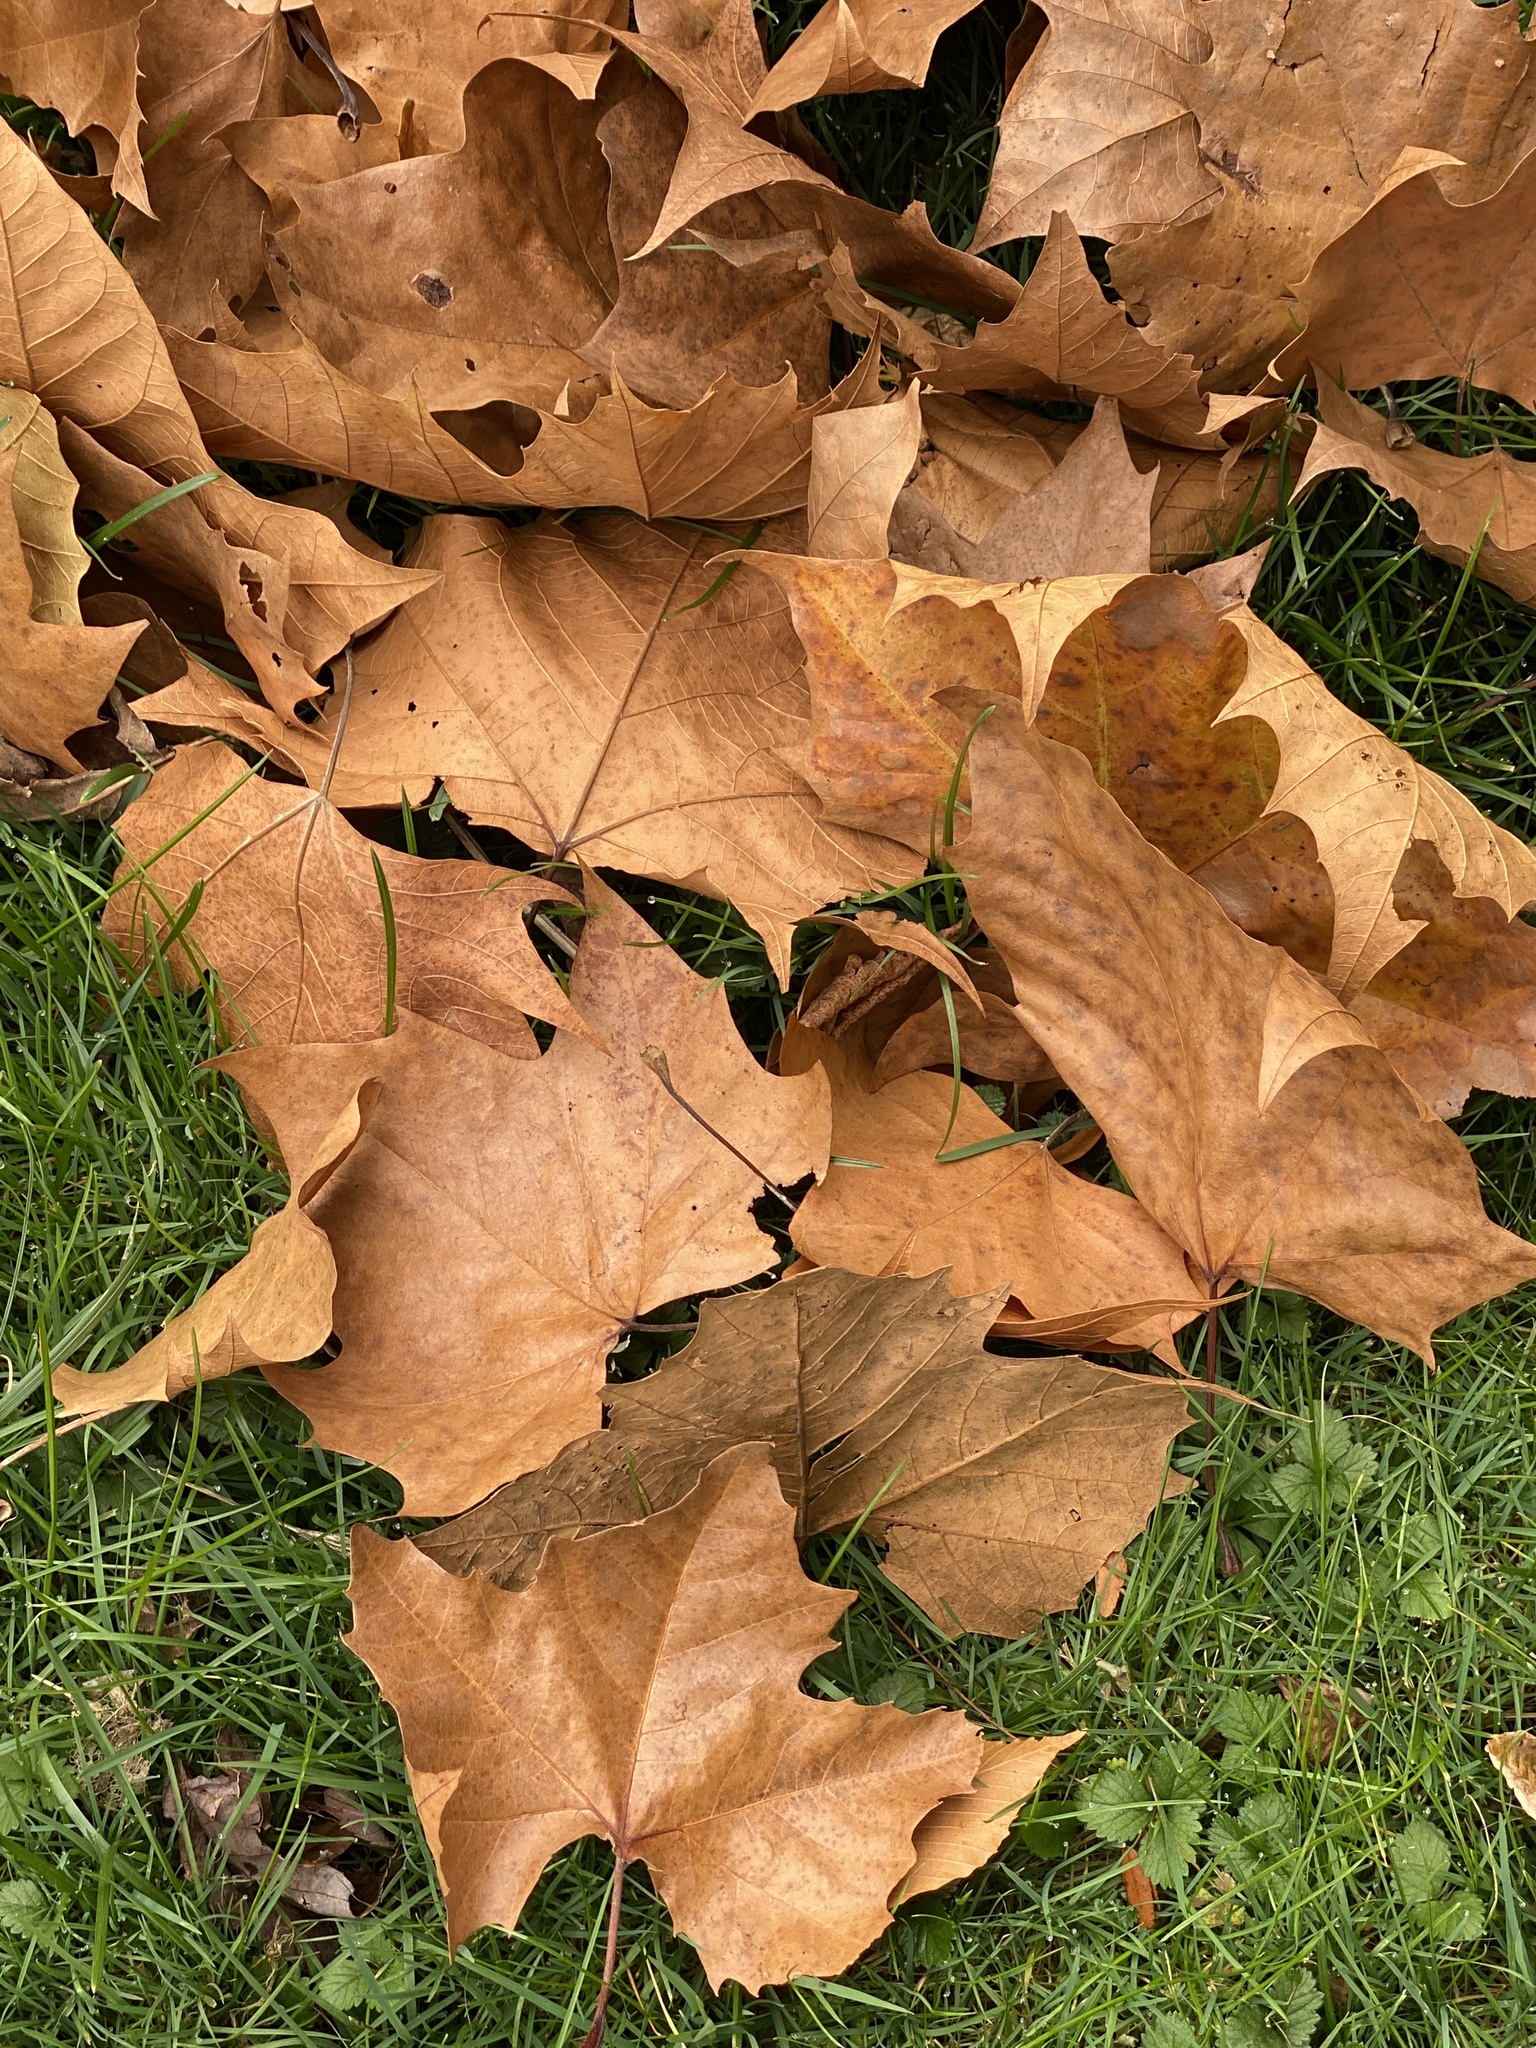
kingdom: Plantae
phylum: Tracheophyta
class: Magnoliopsida
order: Proteales
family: Platanaceae
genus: Platanus
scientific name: Platanus occidentalis
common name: American sycamore
